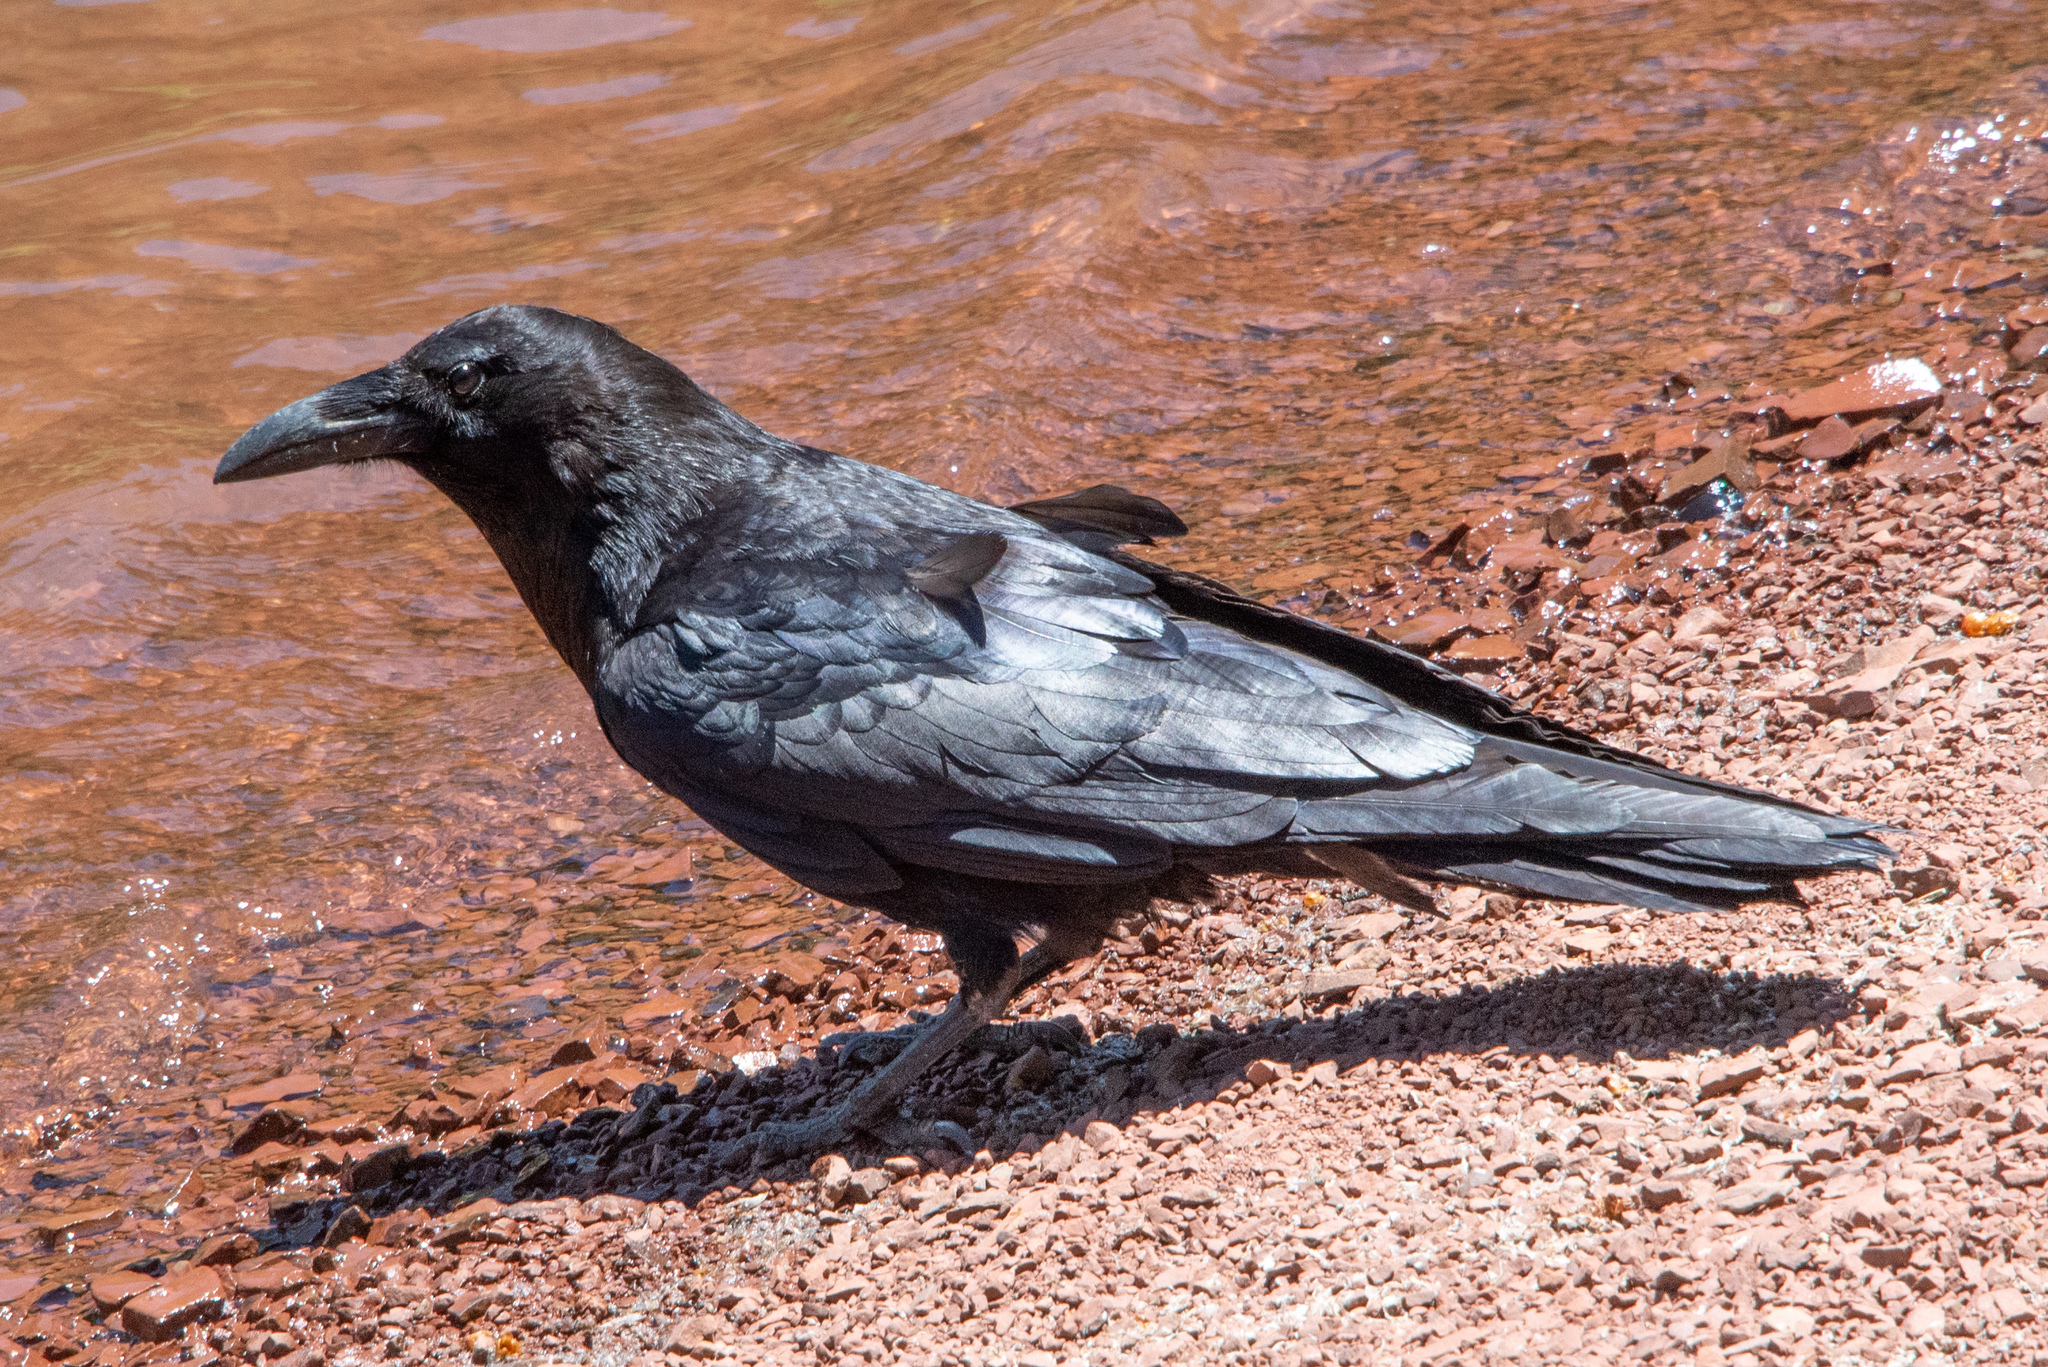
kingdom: Animalia
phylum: Chordata
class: Aves
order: Passeriformes
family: Corvidae
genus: Corvus
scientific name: Corvus corax
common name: Common raven
